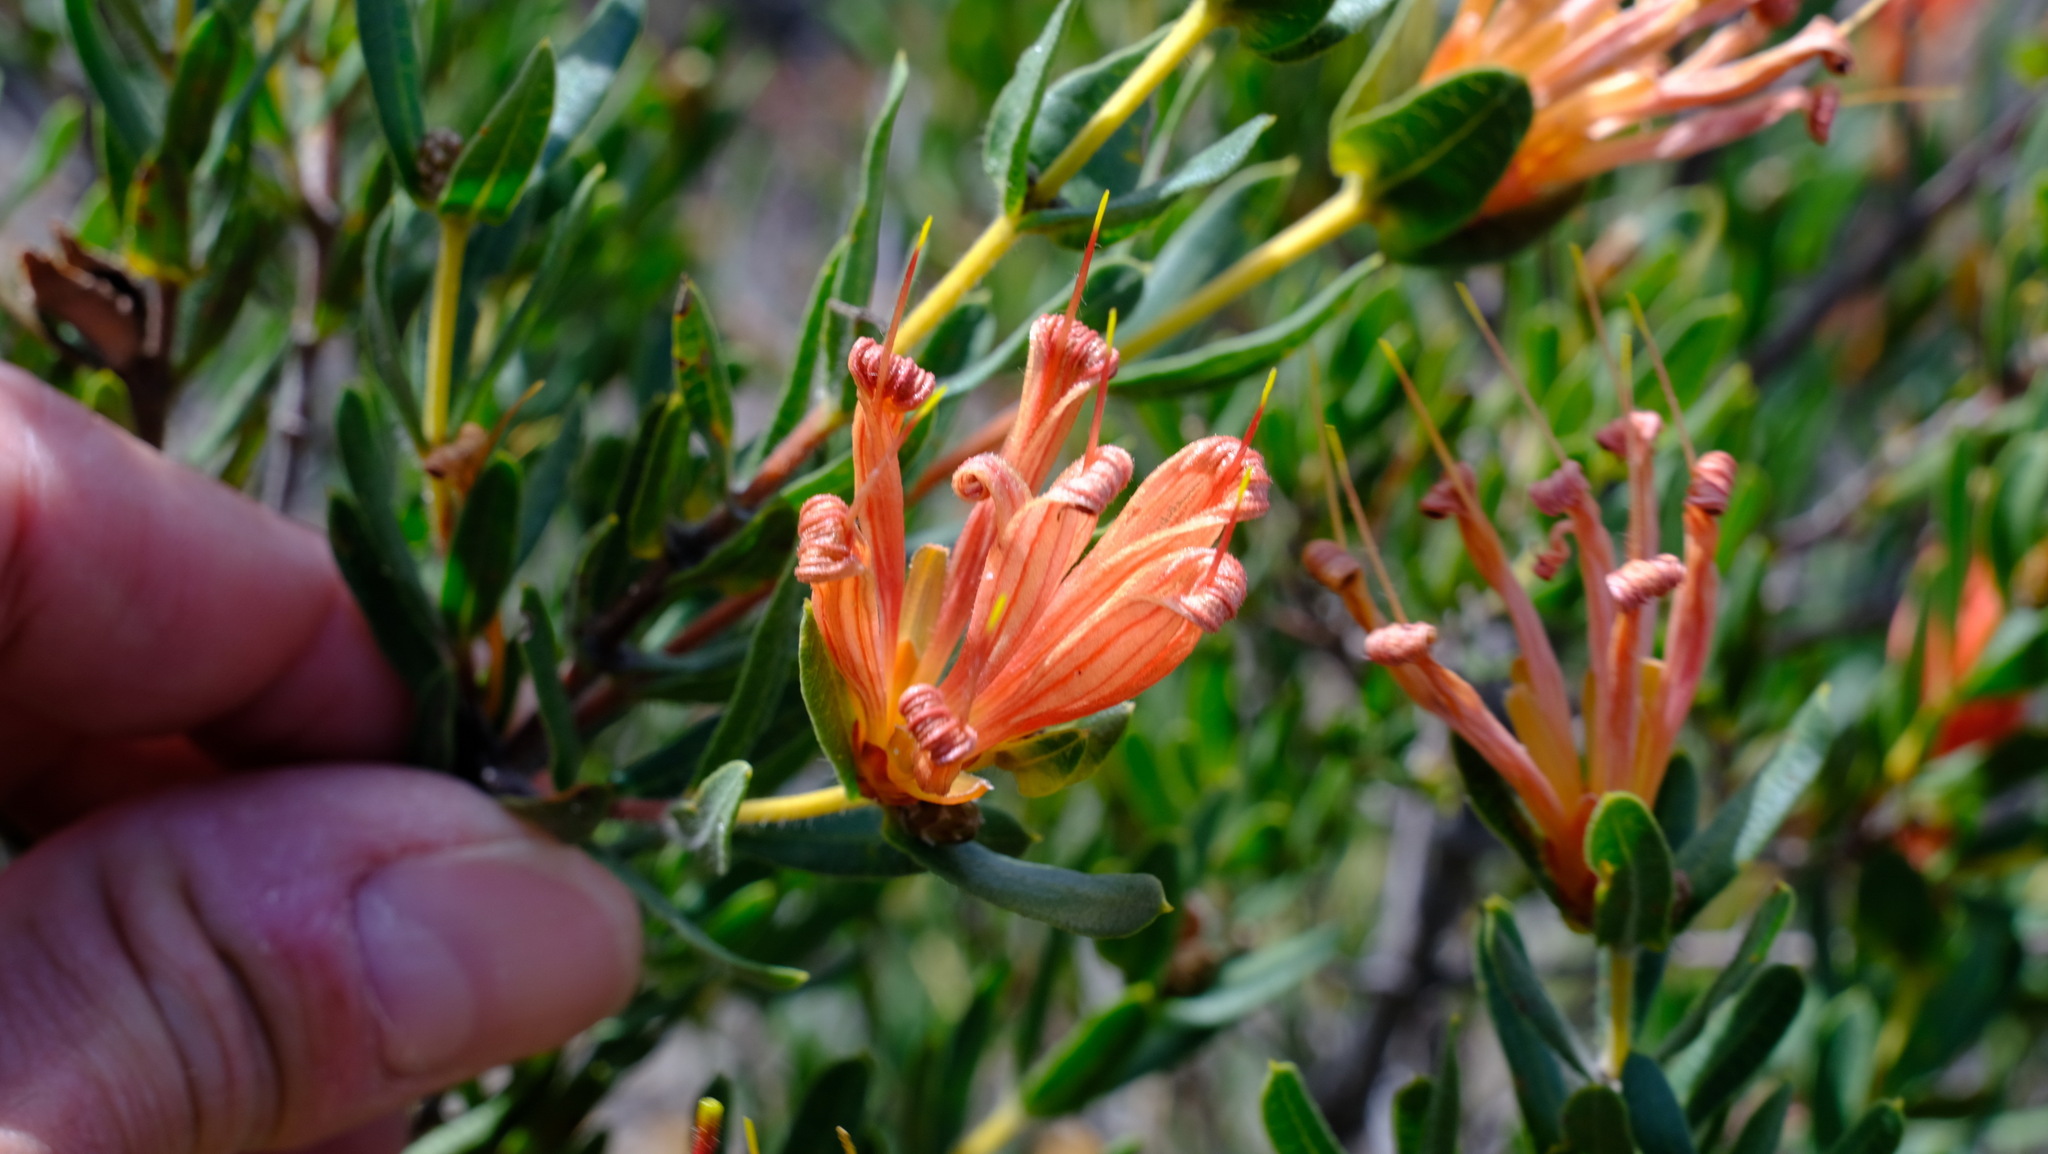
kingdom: Plantae
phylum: Tracheophyta
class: Magnoliopsida
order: Proteales
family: Proteaceae
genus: Lambertia
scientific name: Lambertia multiflora
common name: Many-flowered honeysuckle
